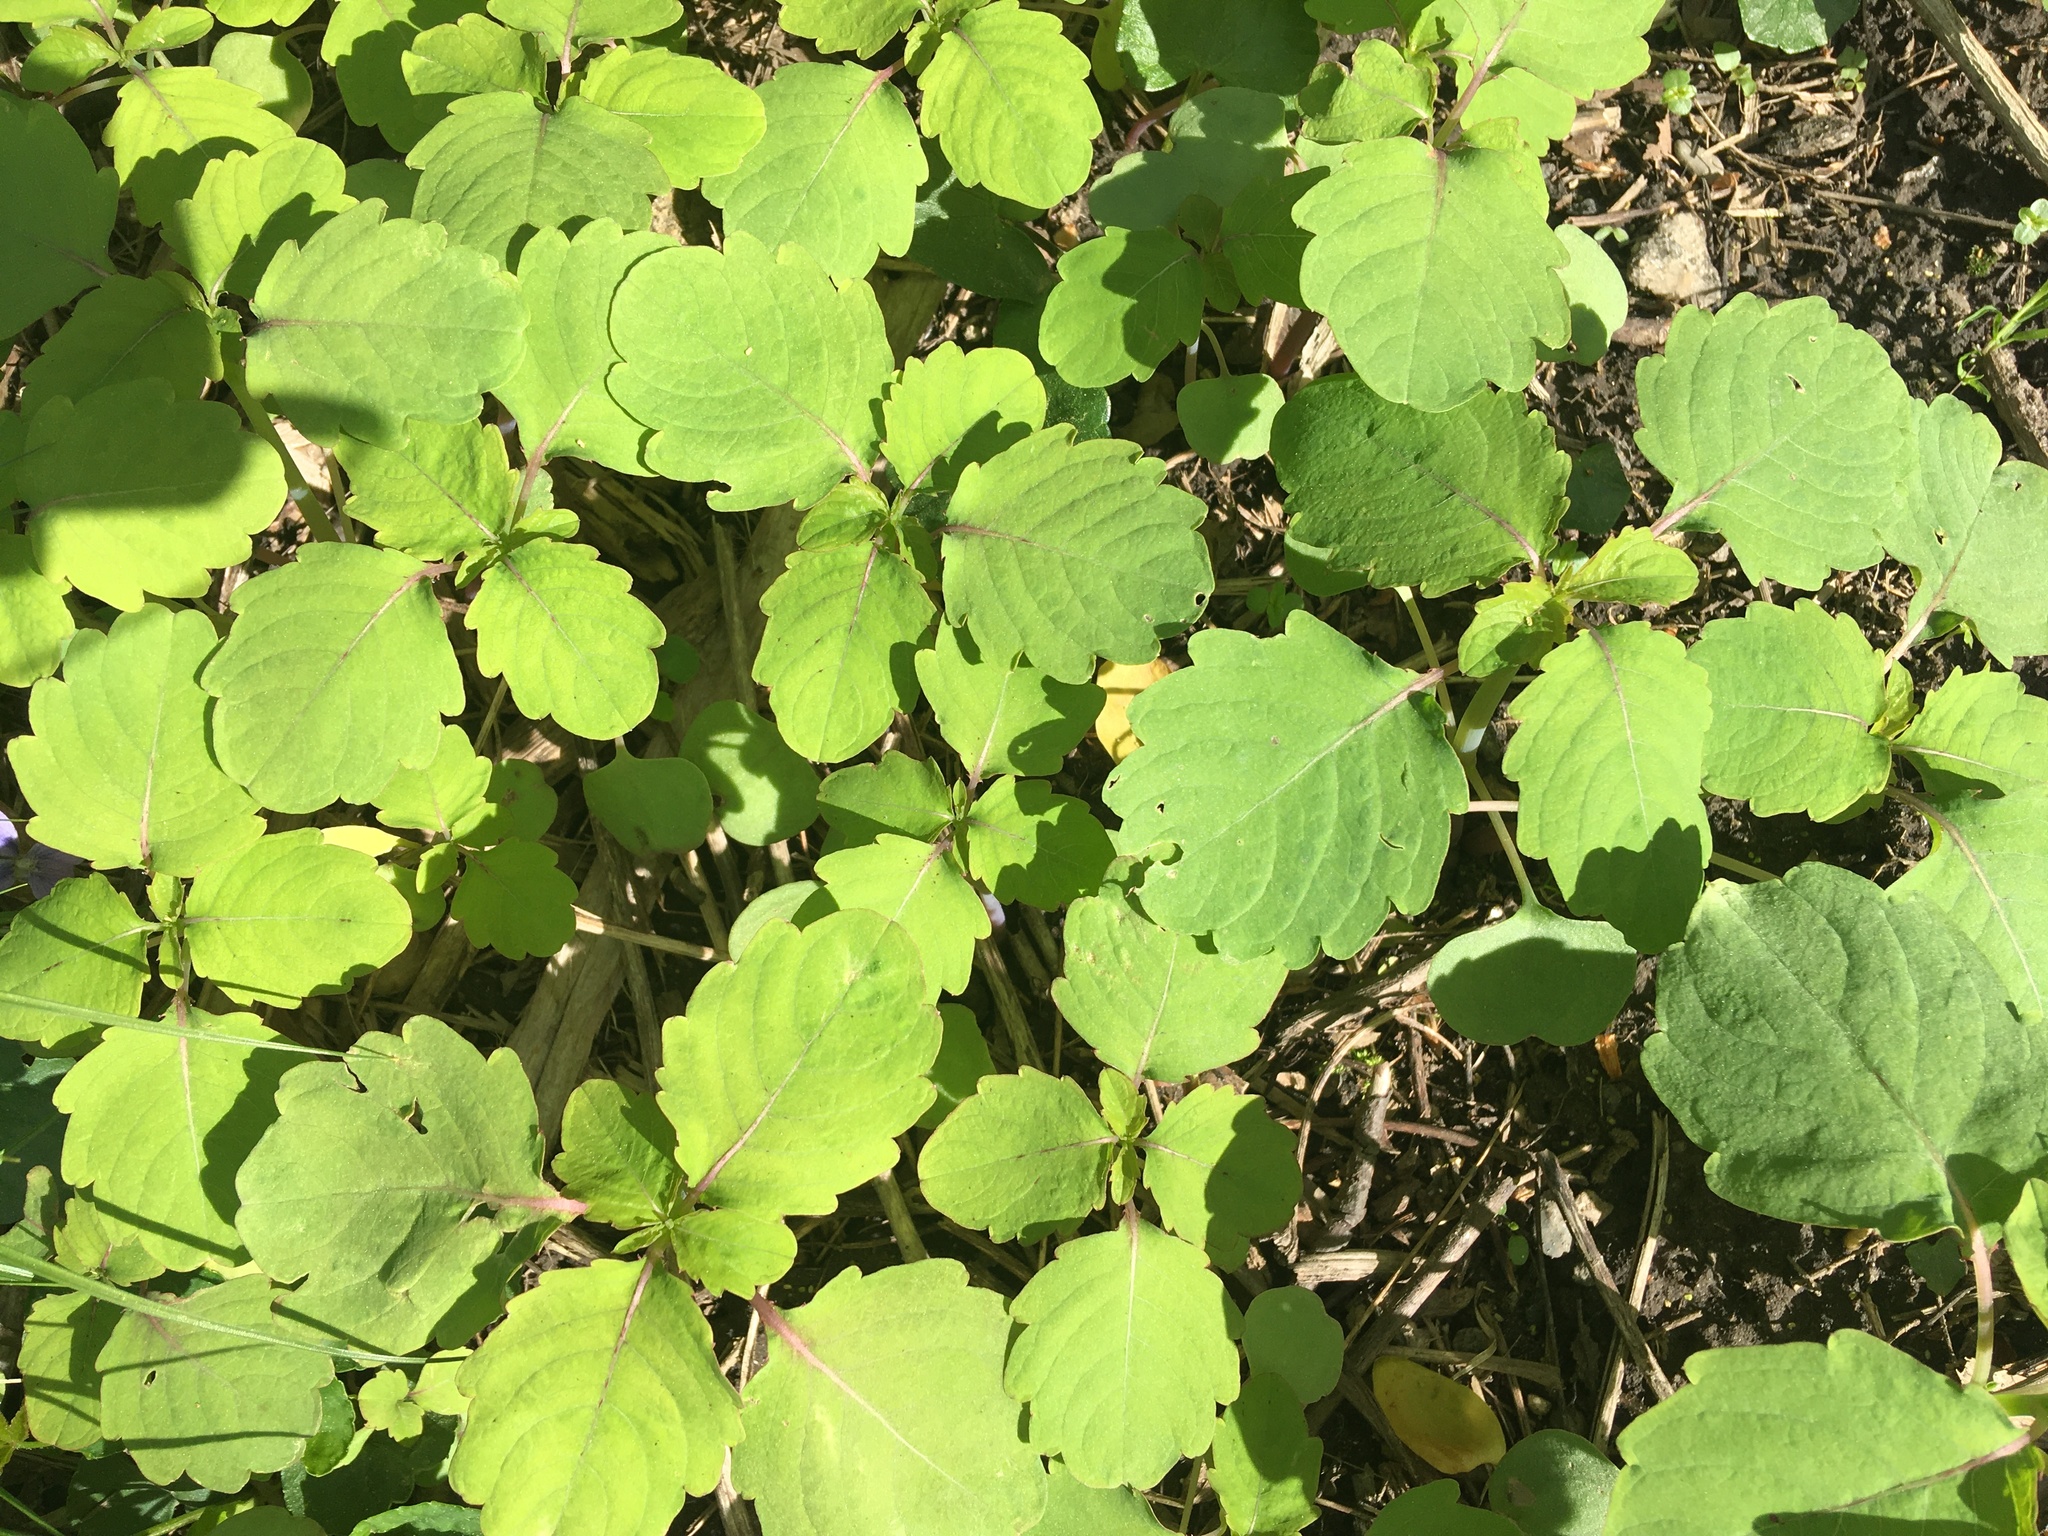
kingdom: Plantae
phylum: Tracheophyta
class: Magnoliopsida
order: Ericales
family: Balsaminaceae
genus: Impatiens
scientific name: Impatiens capensis
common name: Orange balsam
